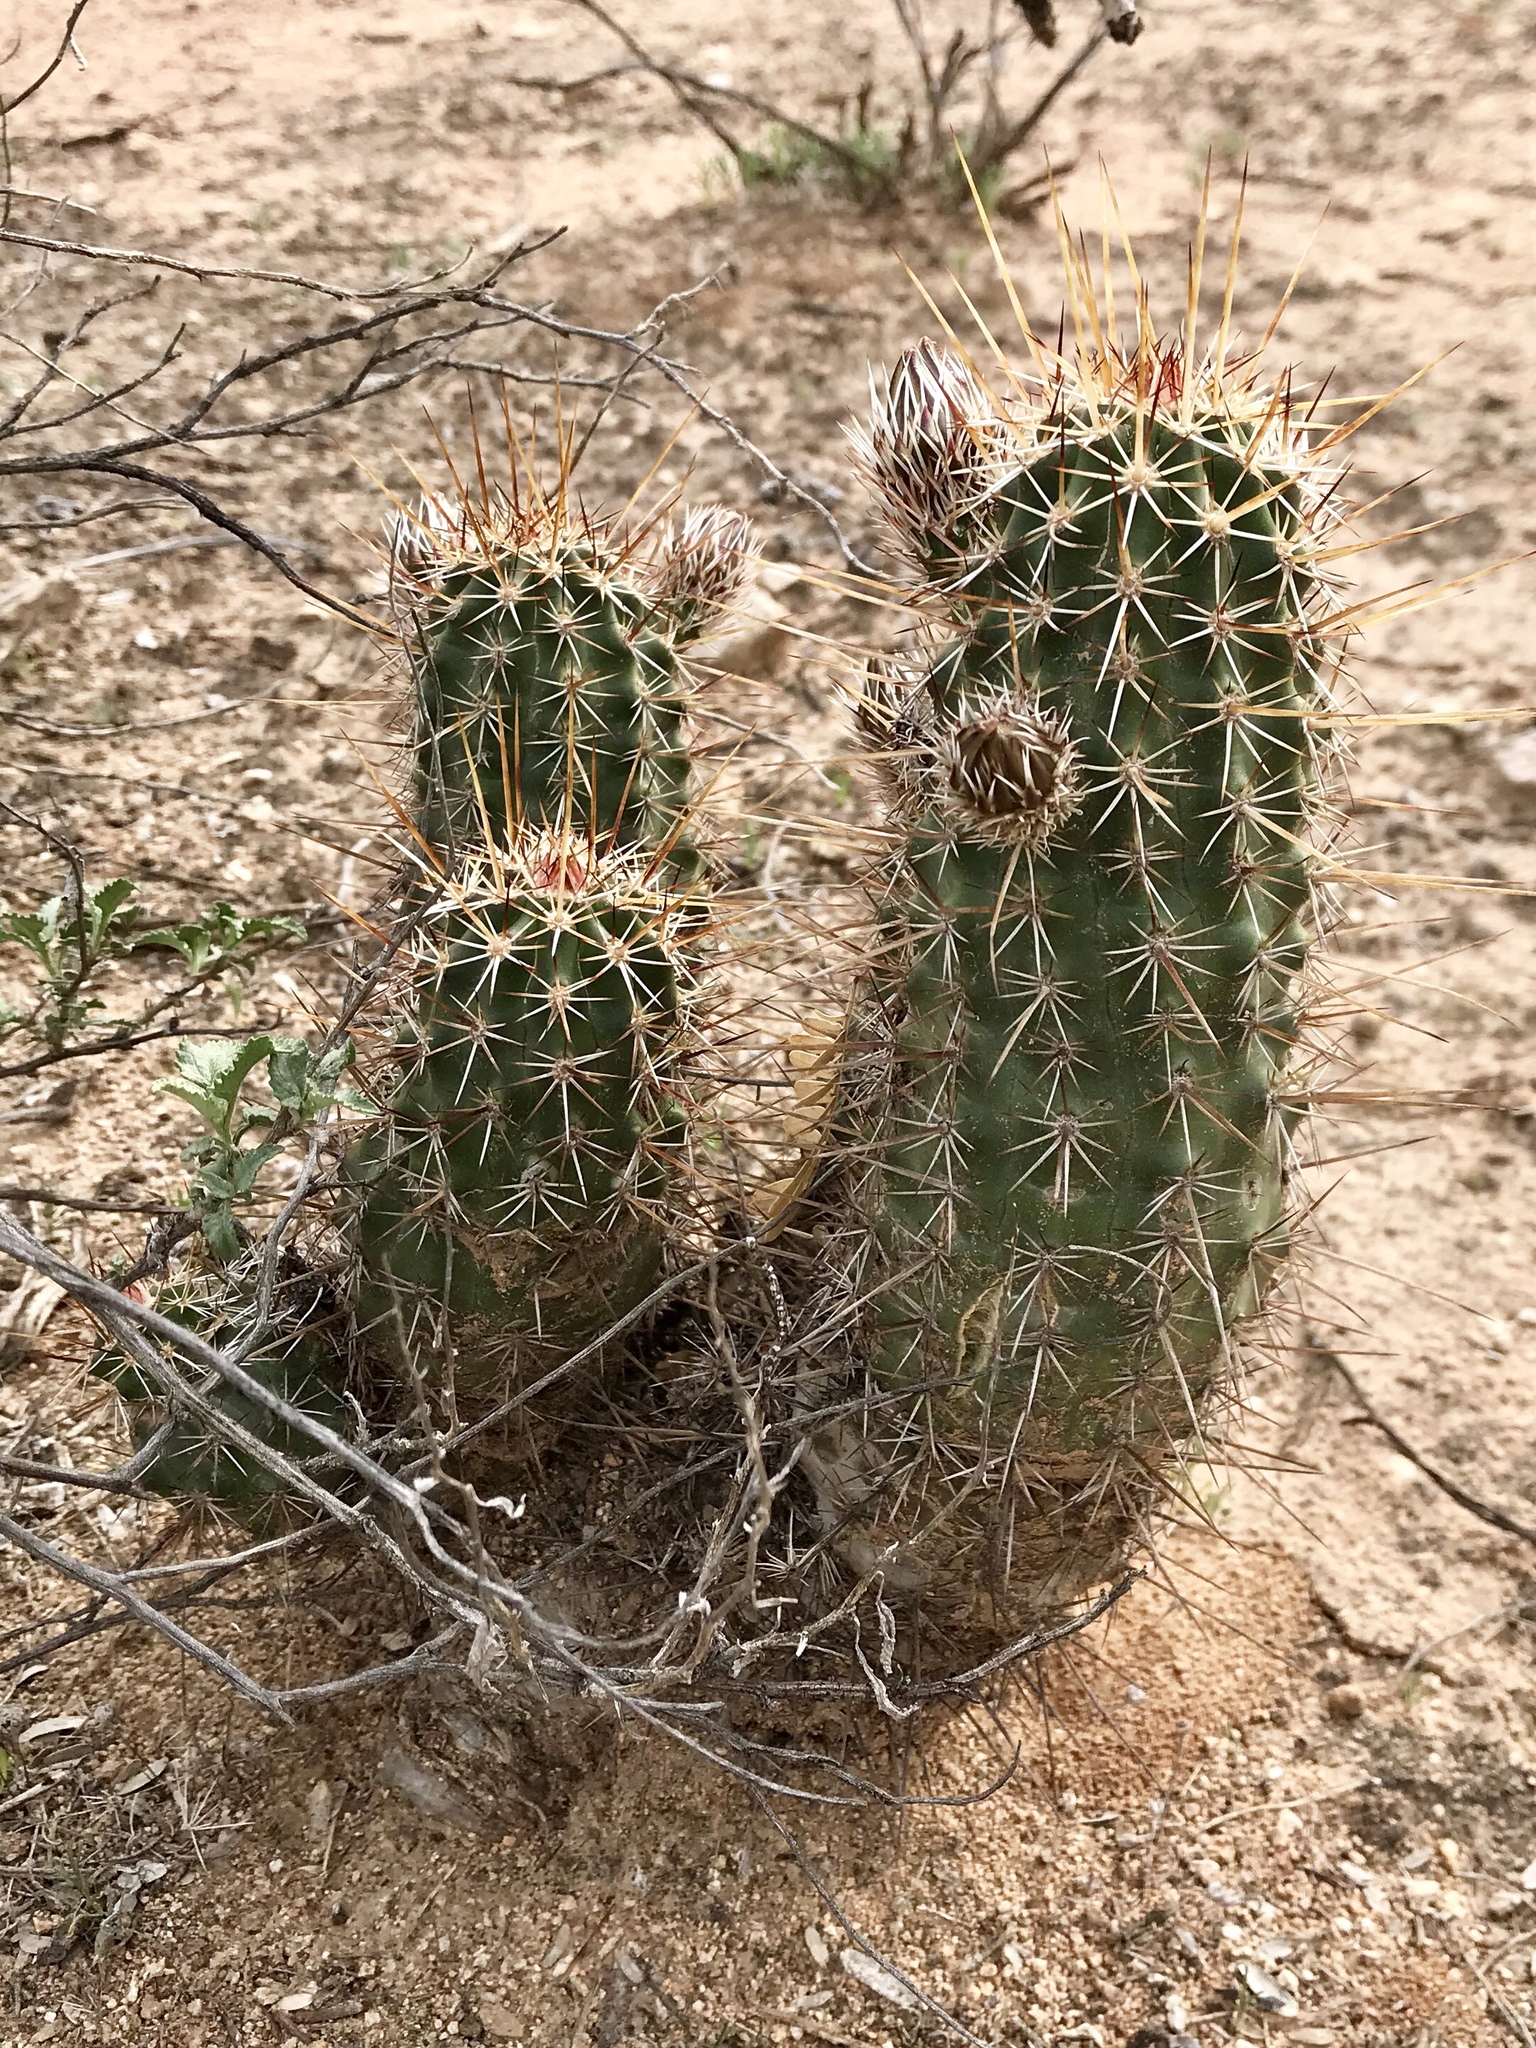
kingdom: Plantae
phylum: Tracheophyta
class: Magnoliopsida
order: Caryophyllales
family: Cactaceae
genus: Echinocereus
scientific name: Echinocereus fasciculatus
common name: Bundle hedgehog
